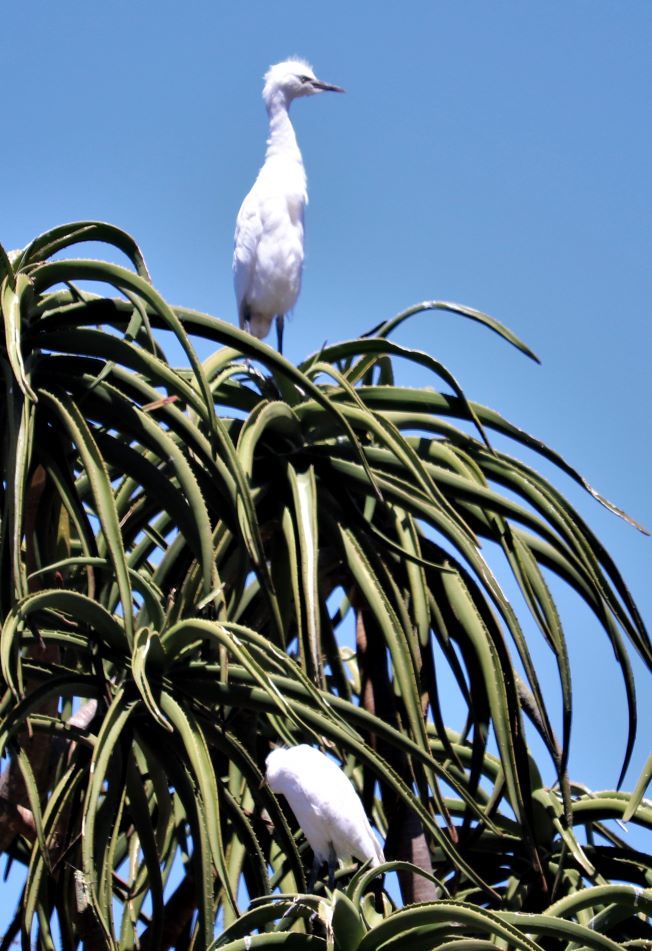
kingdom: Animalia
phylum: Chordata
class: Aves
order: Pelecaniformes
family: Ardeidae
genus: Bubulcus
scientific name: Bubulcus ibis
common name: Cattle egret
